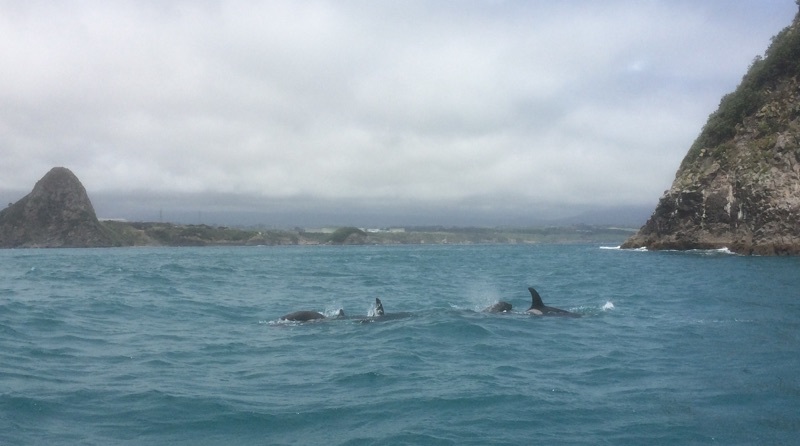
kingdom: Animalia
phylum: Chordata
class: Mammalia
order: Cetacea
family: Delphinidae
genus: Orcinus
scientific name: Orcinus orca
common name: Killer whale
